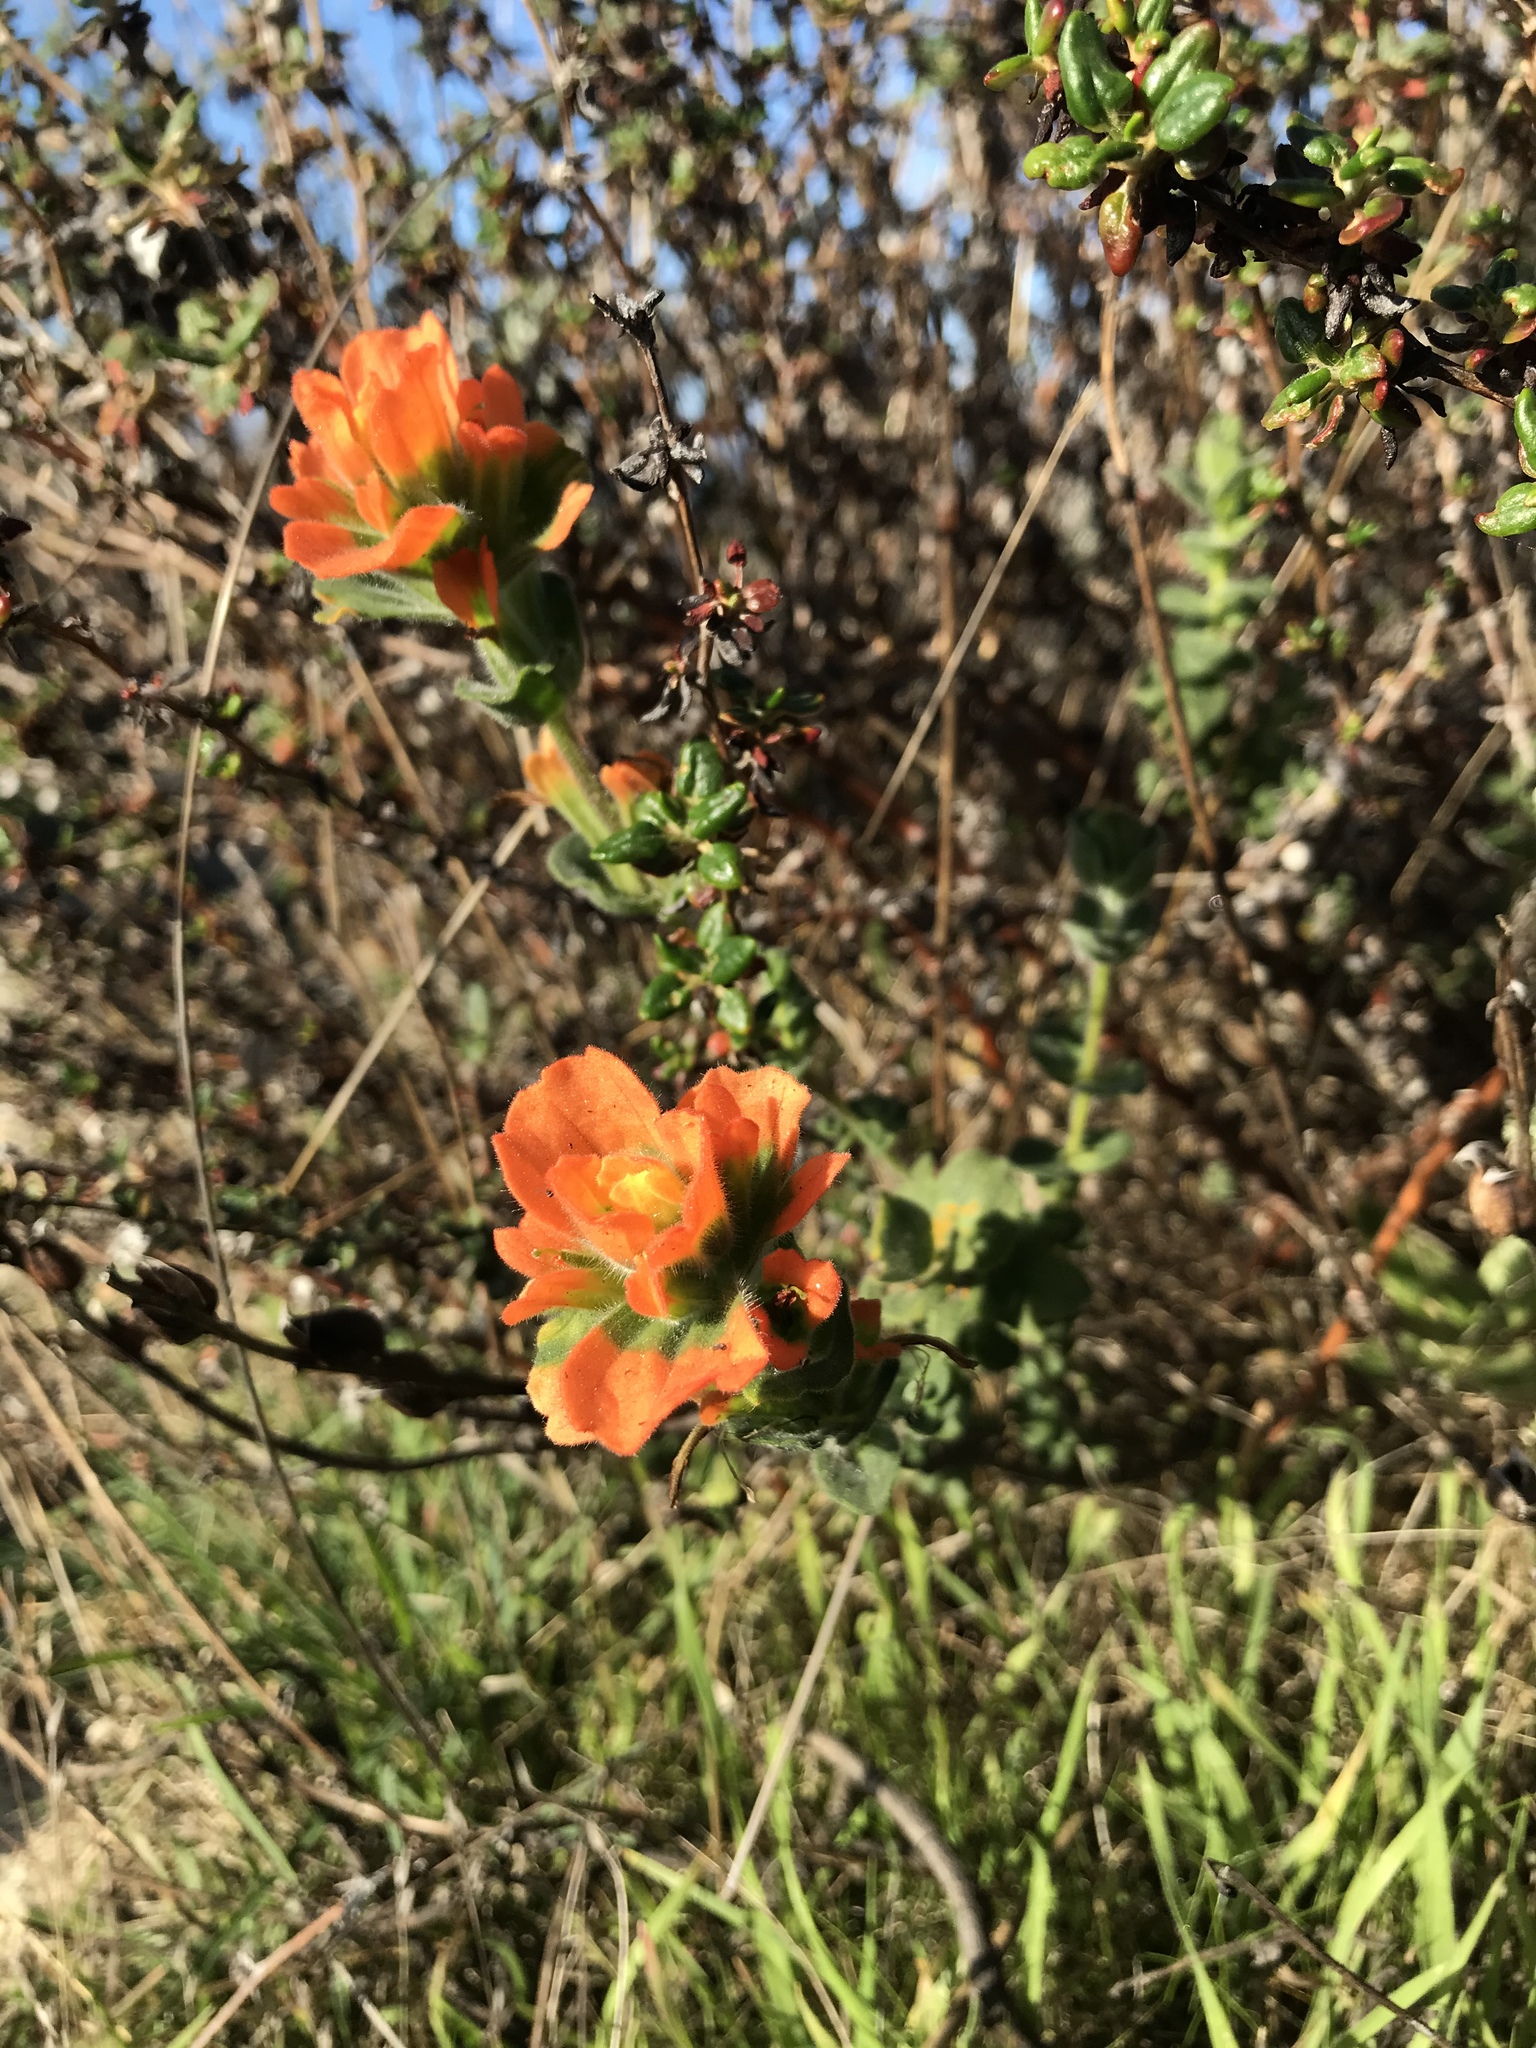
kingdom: Plantae
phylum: Tracheophyta
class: Magnoliopsida
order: Lamiales
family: Orobanchaceae
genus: Castilleja
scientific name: Castilleja latifolia
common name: Monterey indian paintbrush
